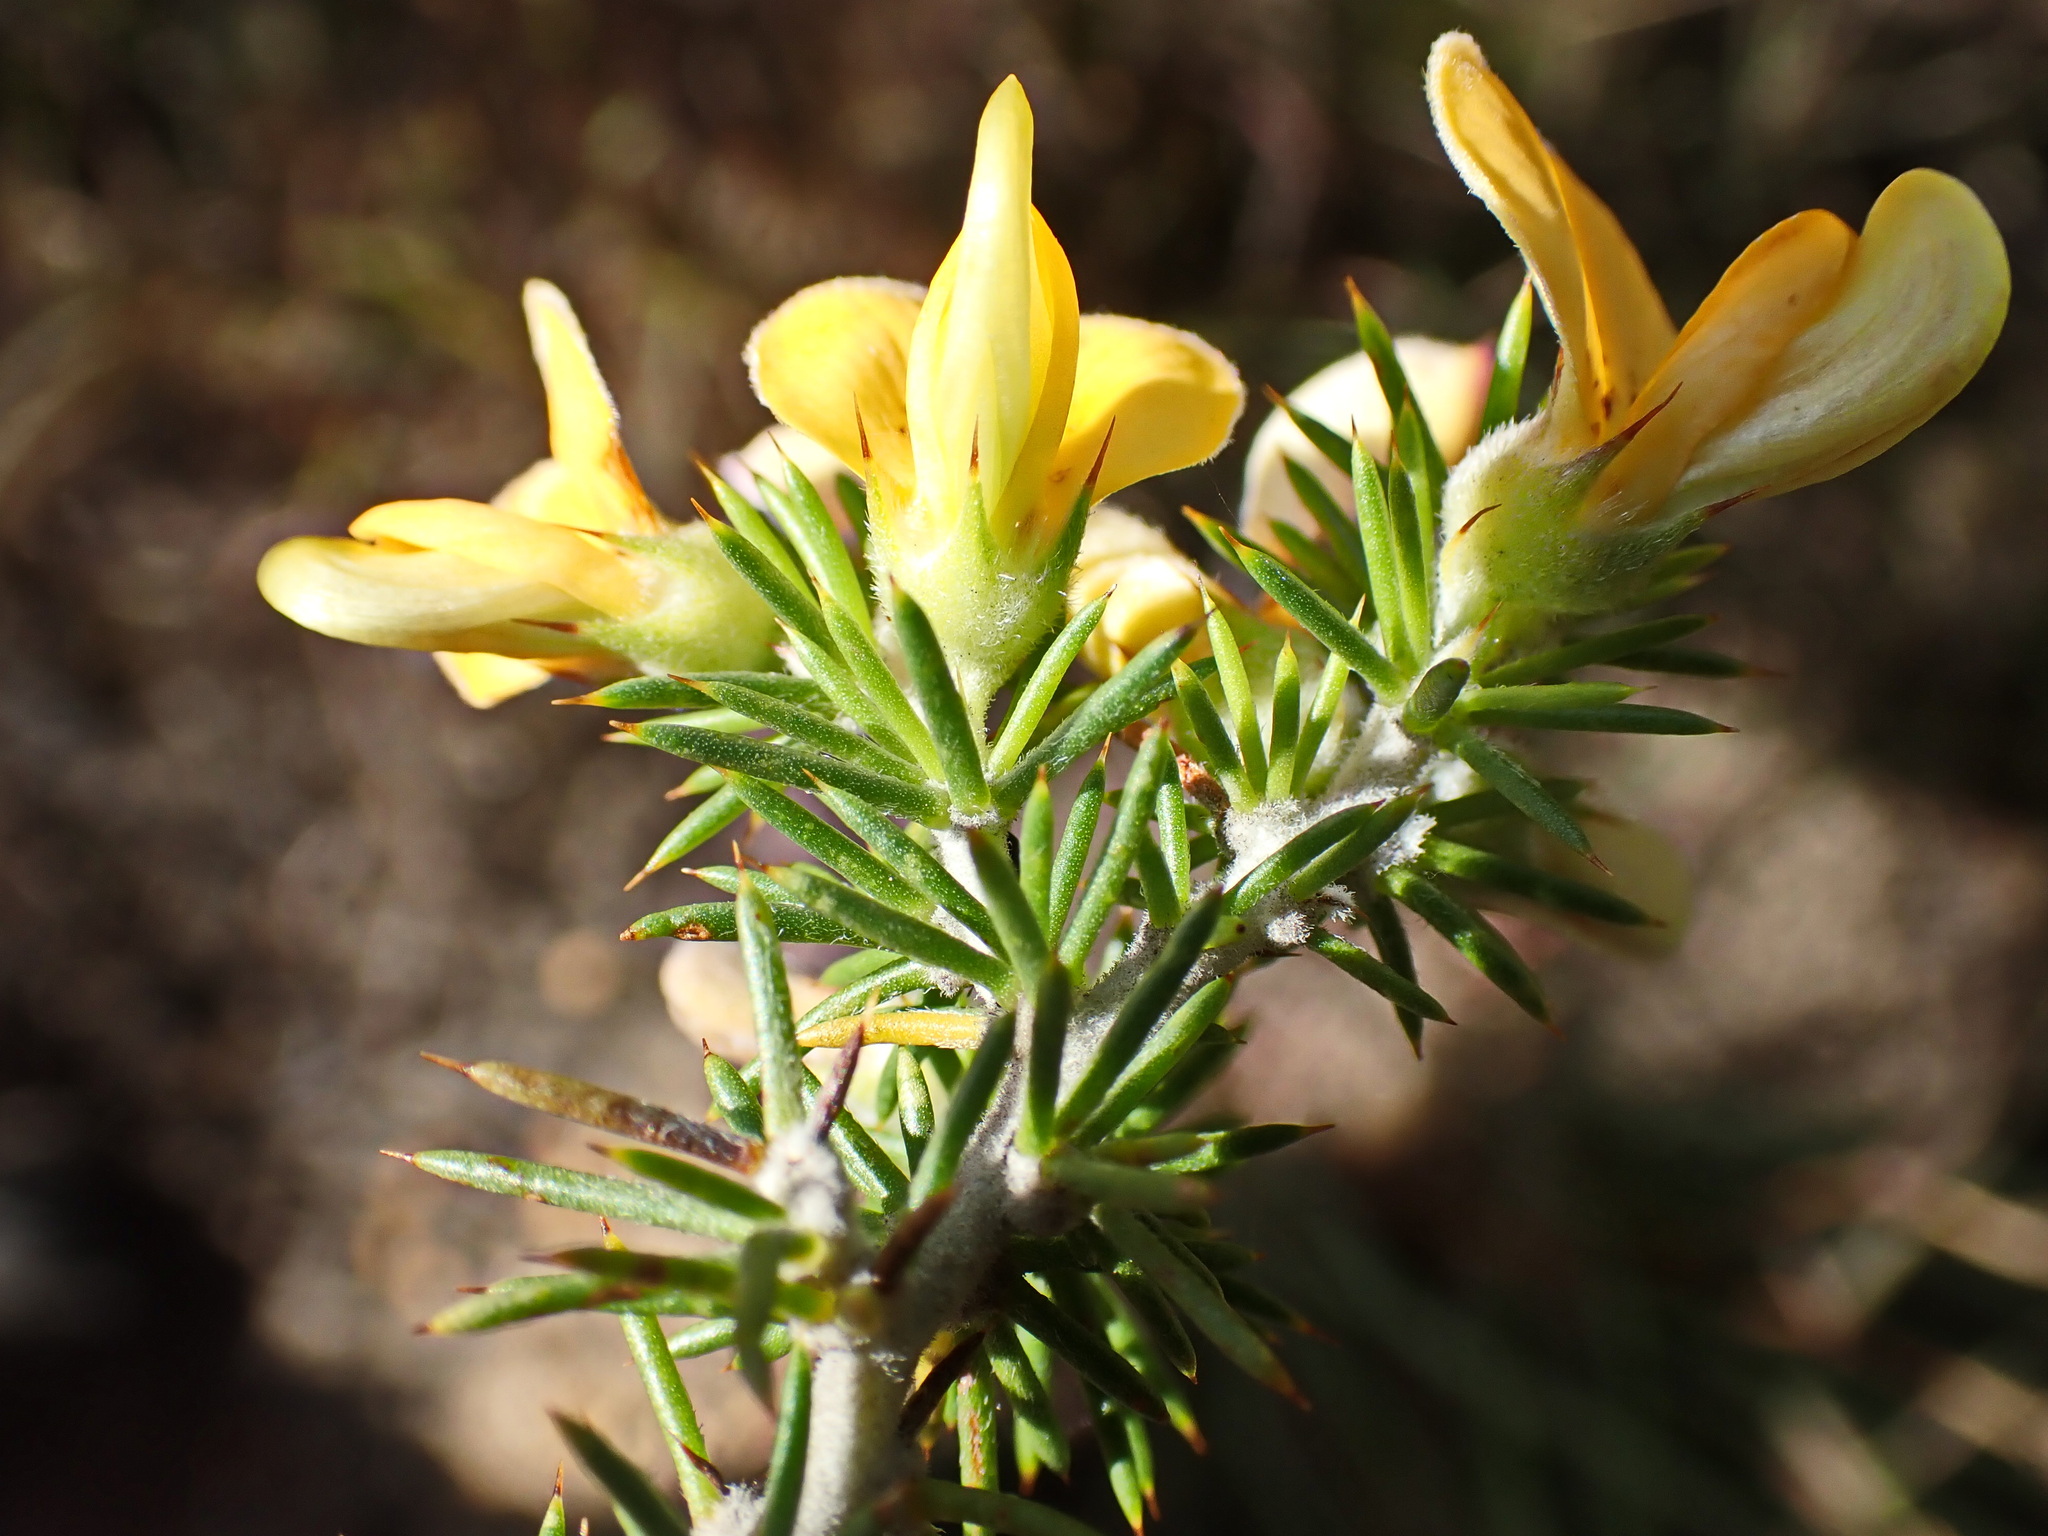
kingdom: Plantae
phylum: Tracheophyta
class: Magnoliopsida
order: Fabales
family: Fabaceae
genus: Aspalathus
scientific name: Aspalathus hirta
